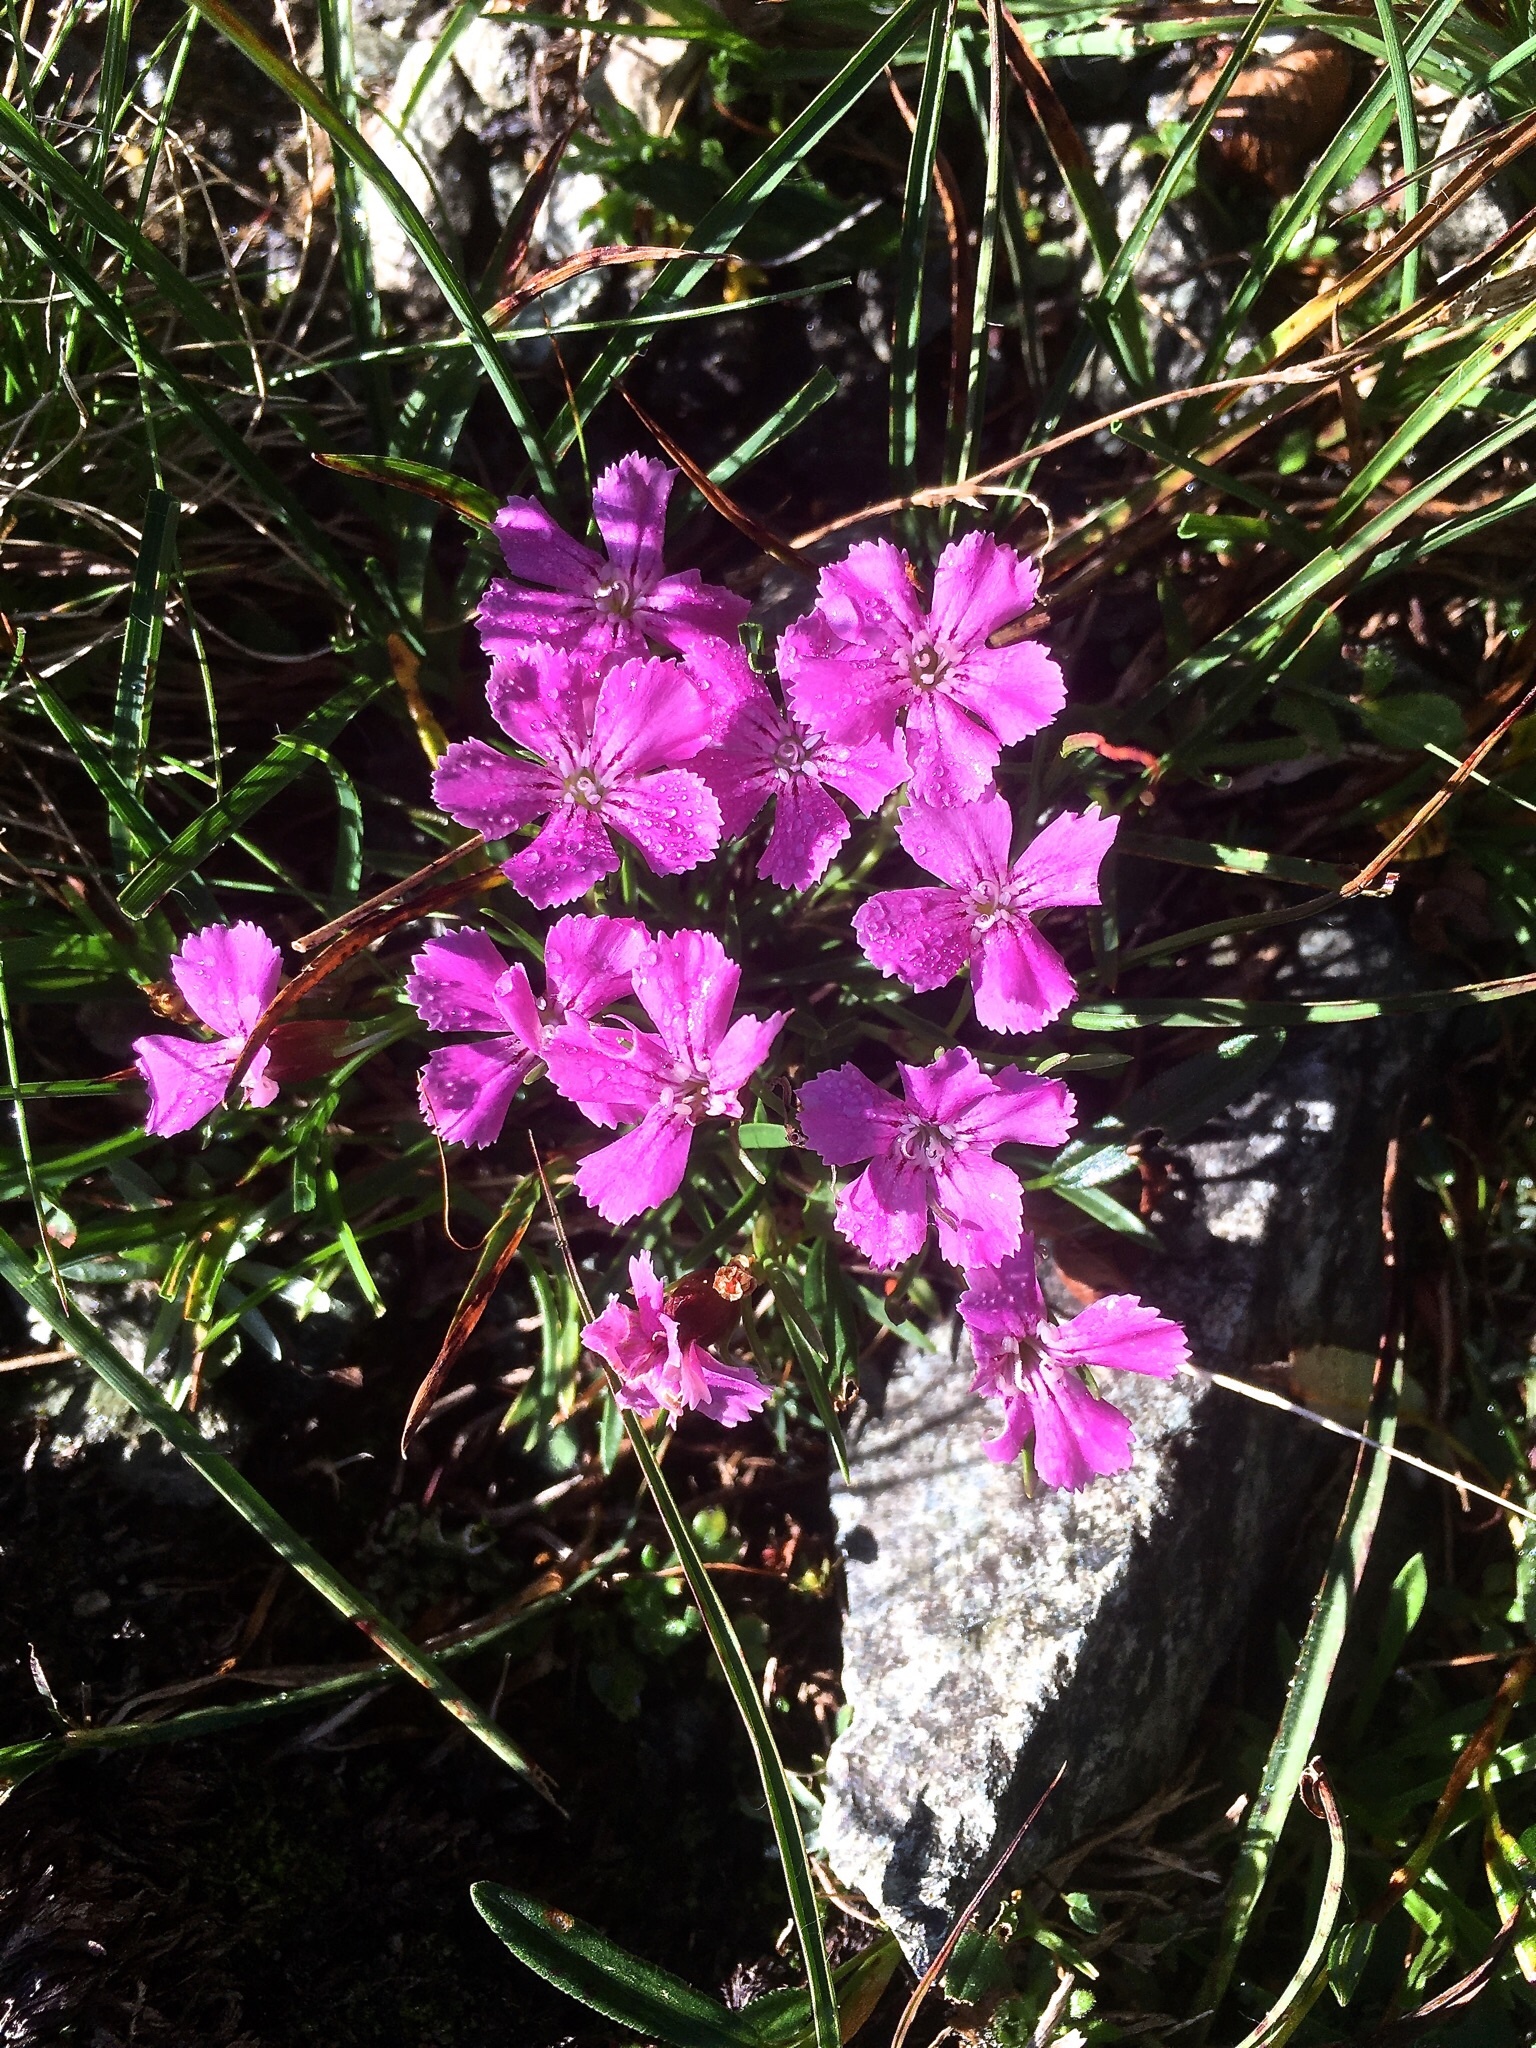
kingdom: Plantae
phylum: Tracheophyta
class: Magnoliopsida
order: Caryophyllales
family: Caryophyllaceae
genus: Dianthus
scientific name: Dianthus glacialis
